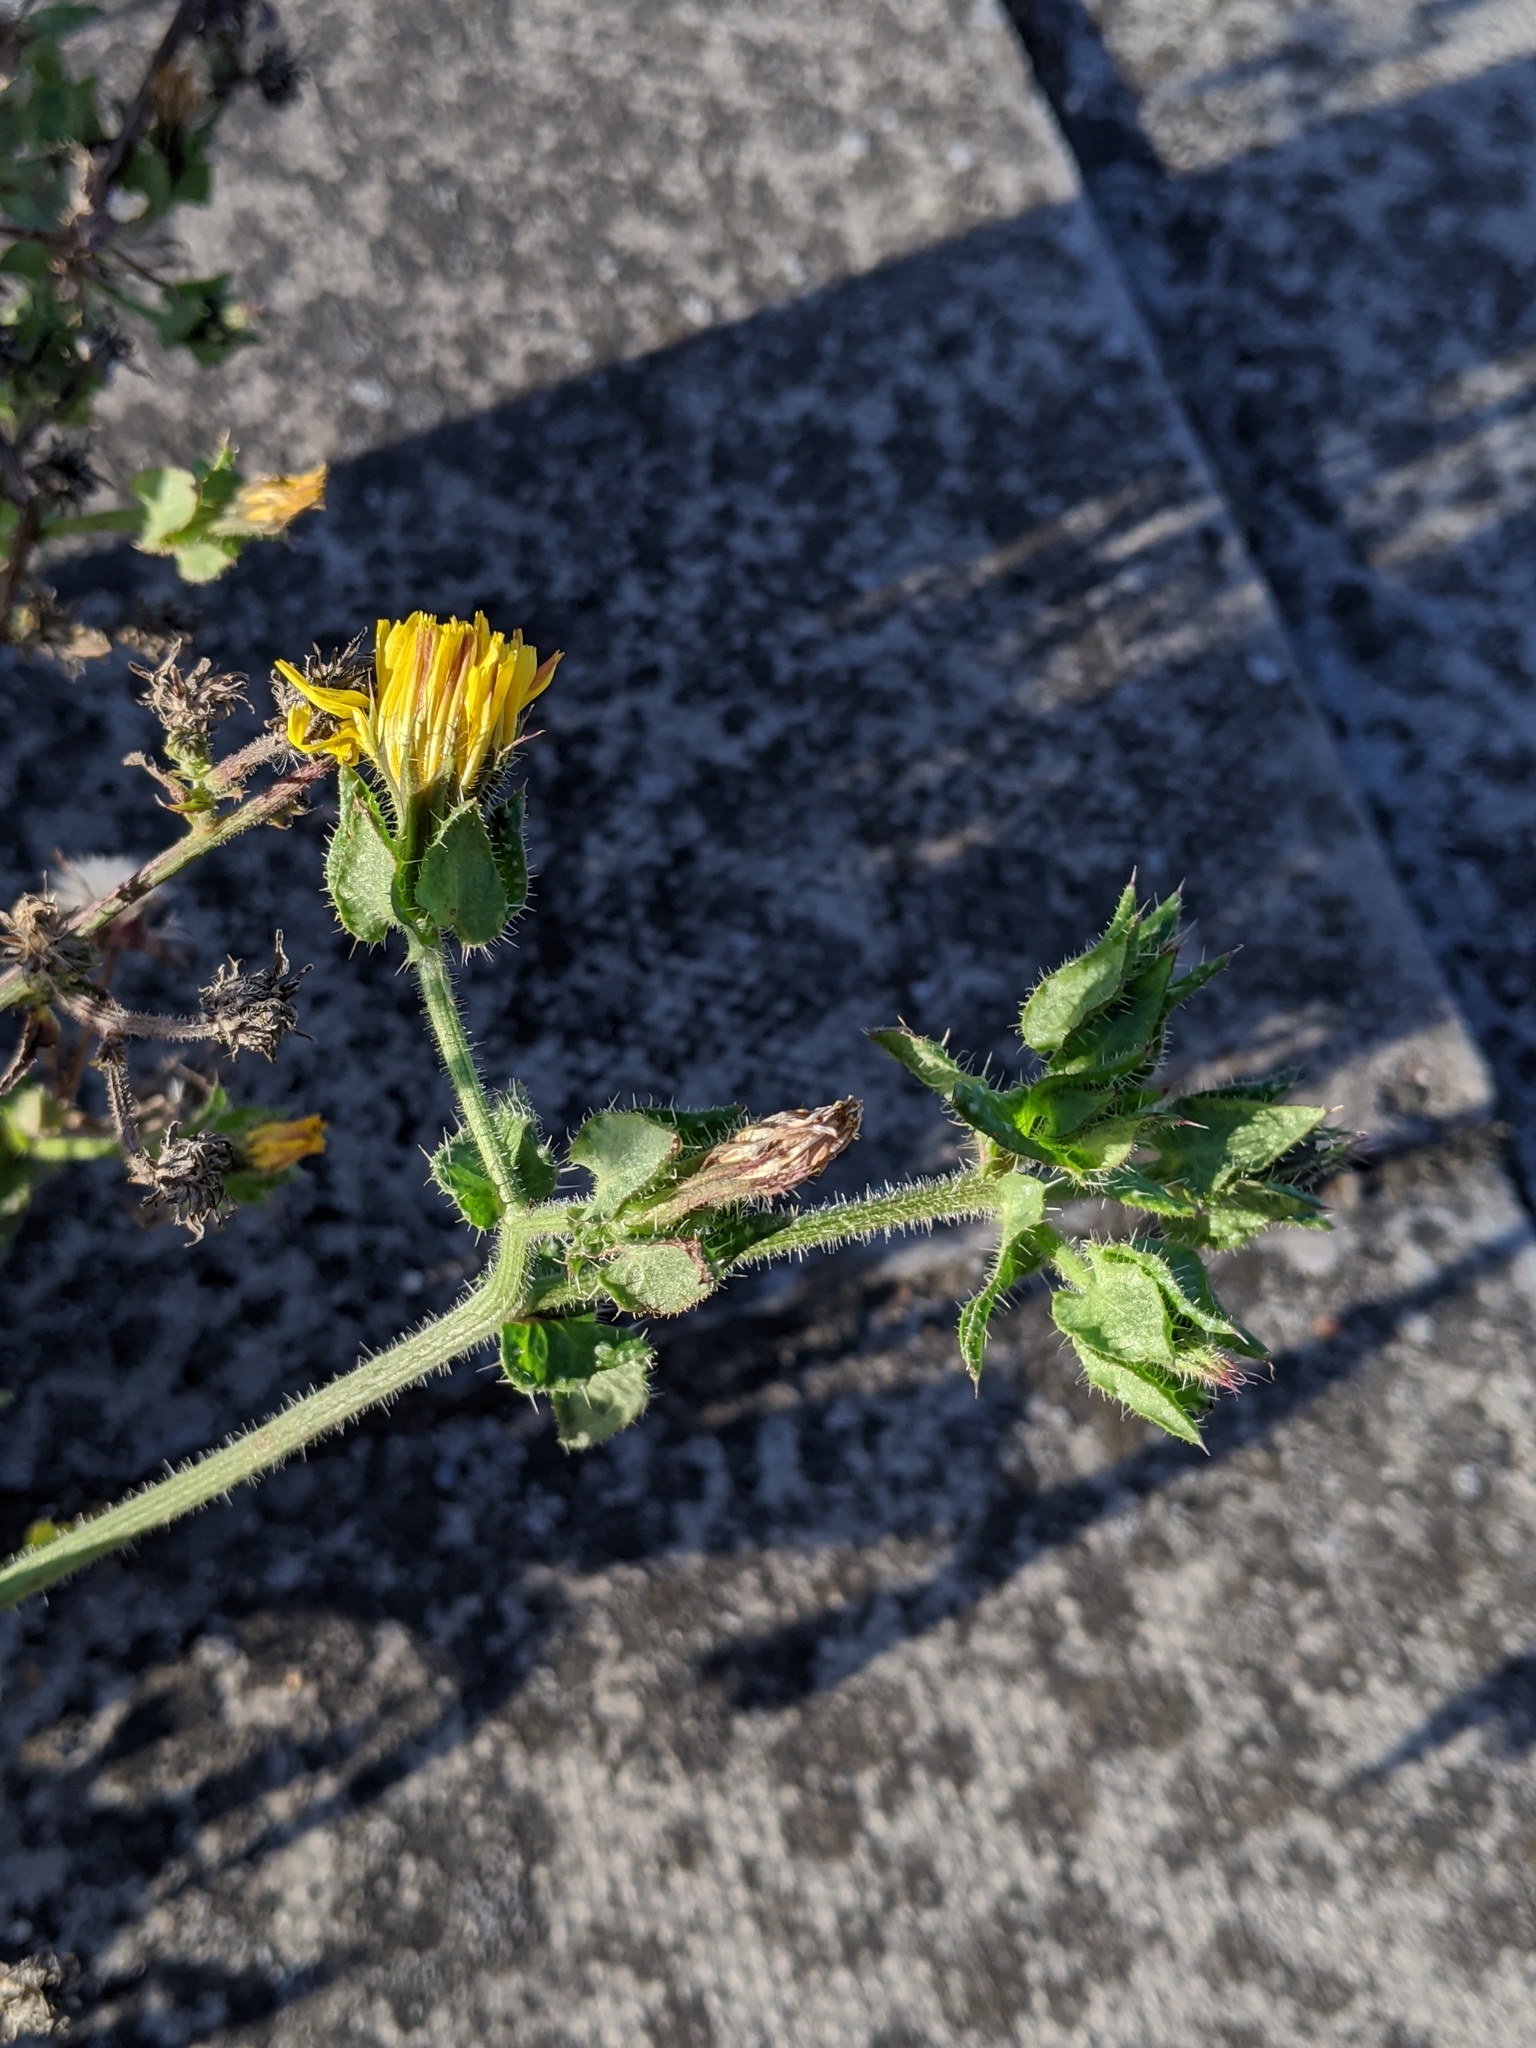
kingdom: Plantae
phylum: Tracheophyta
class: Magnoliopsida
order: Asterales
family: Asteraceae
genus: Helminthotheca
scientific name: Helminthotheca echioides
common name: Ox-tongue
